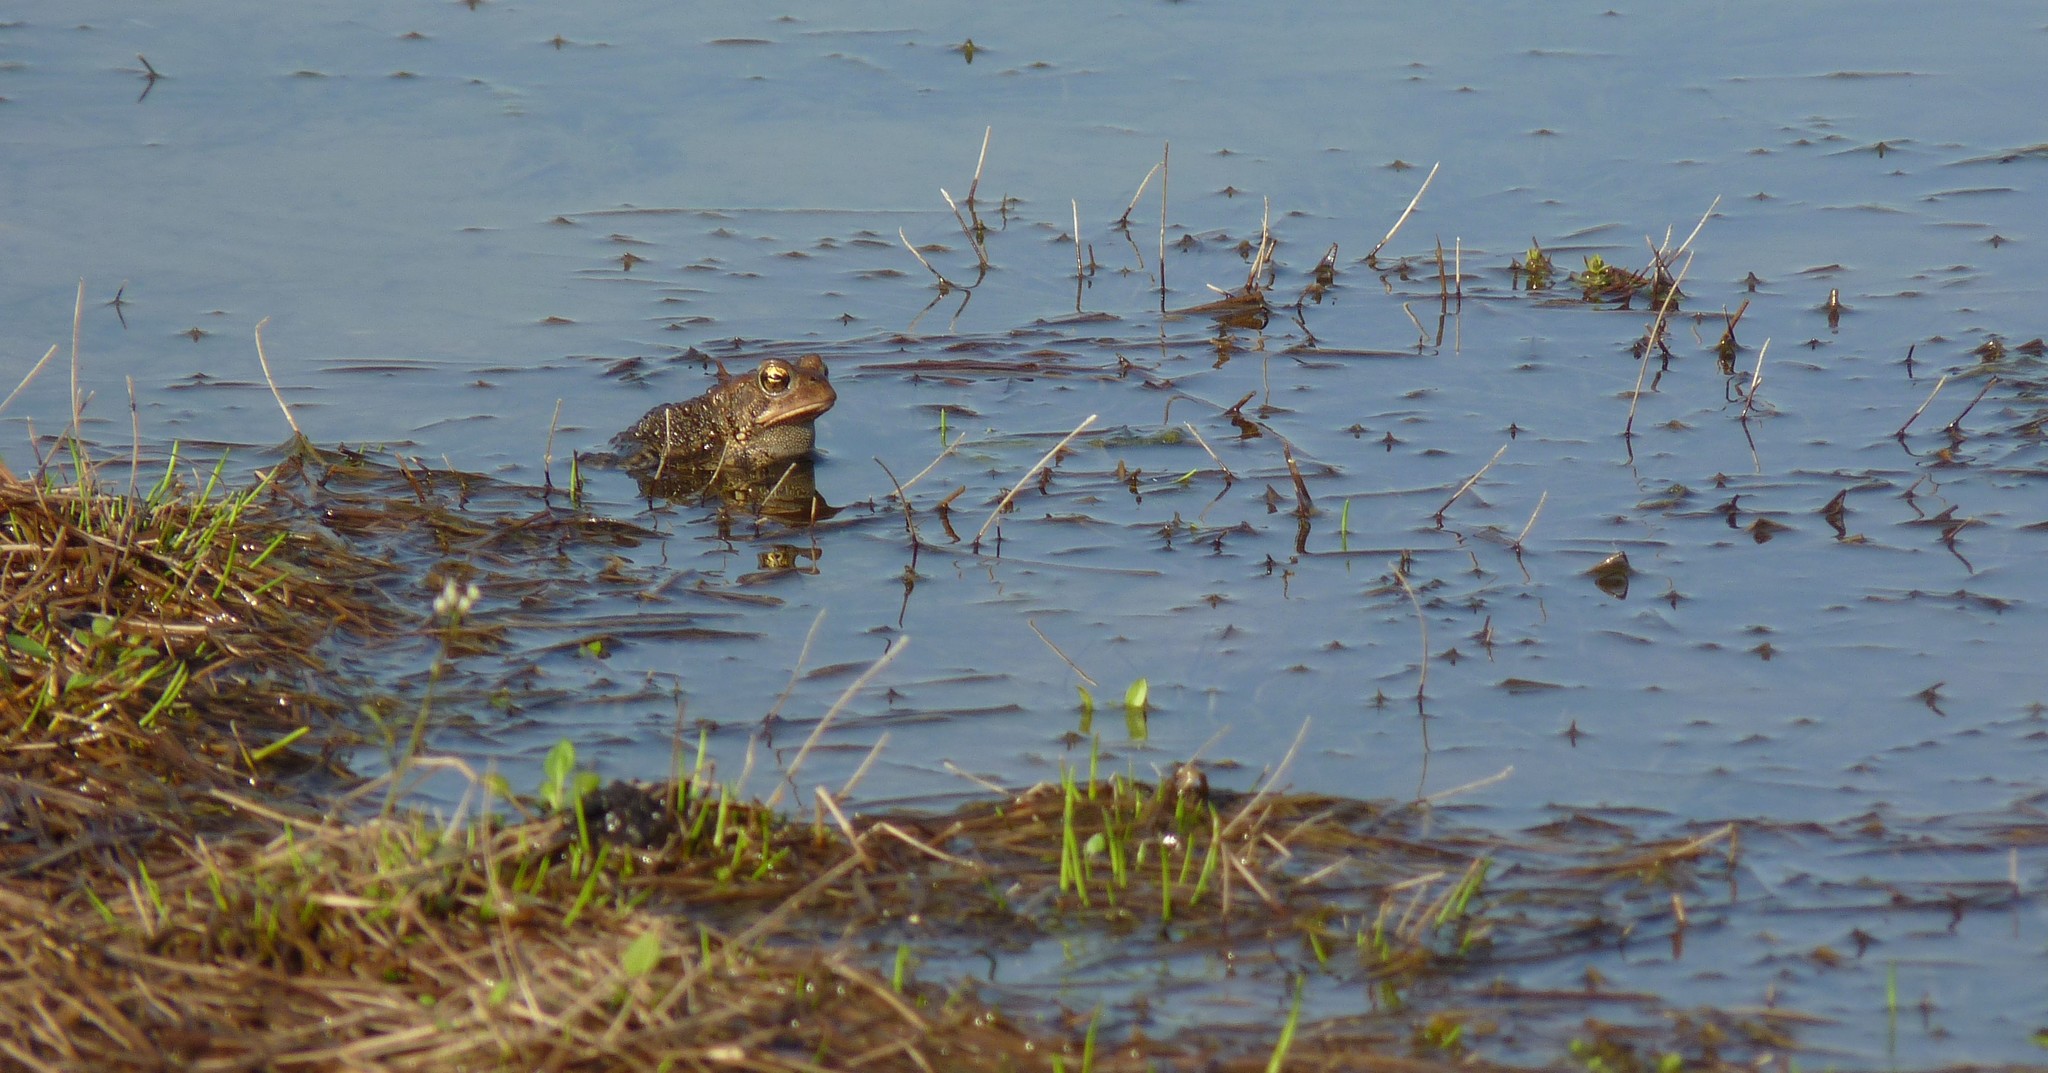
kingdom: Animalia
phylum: Chordata
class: Amphibia
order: Anura
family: Bufonidae
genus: Anaxyrus
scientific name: Anaxyrus americanus
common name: American toad
